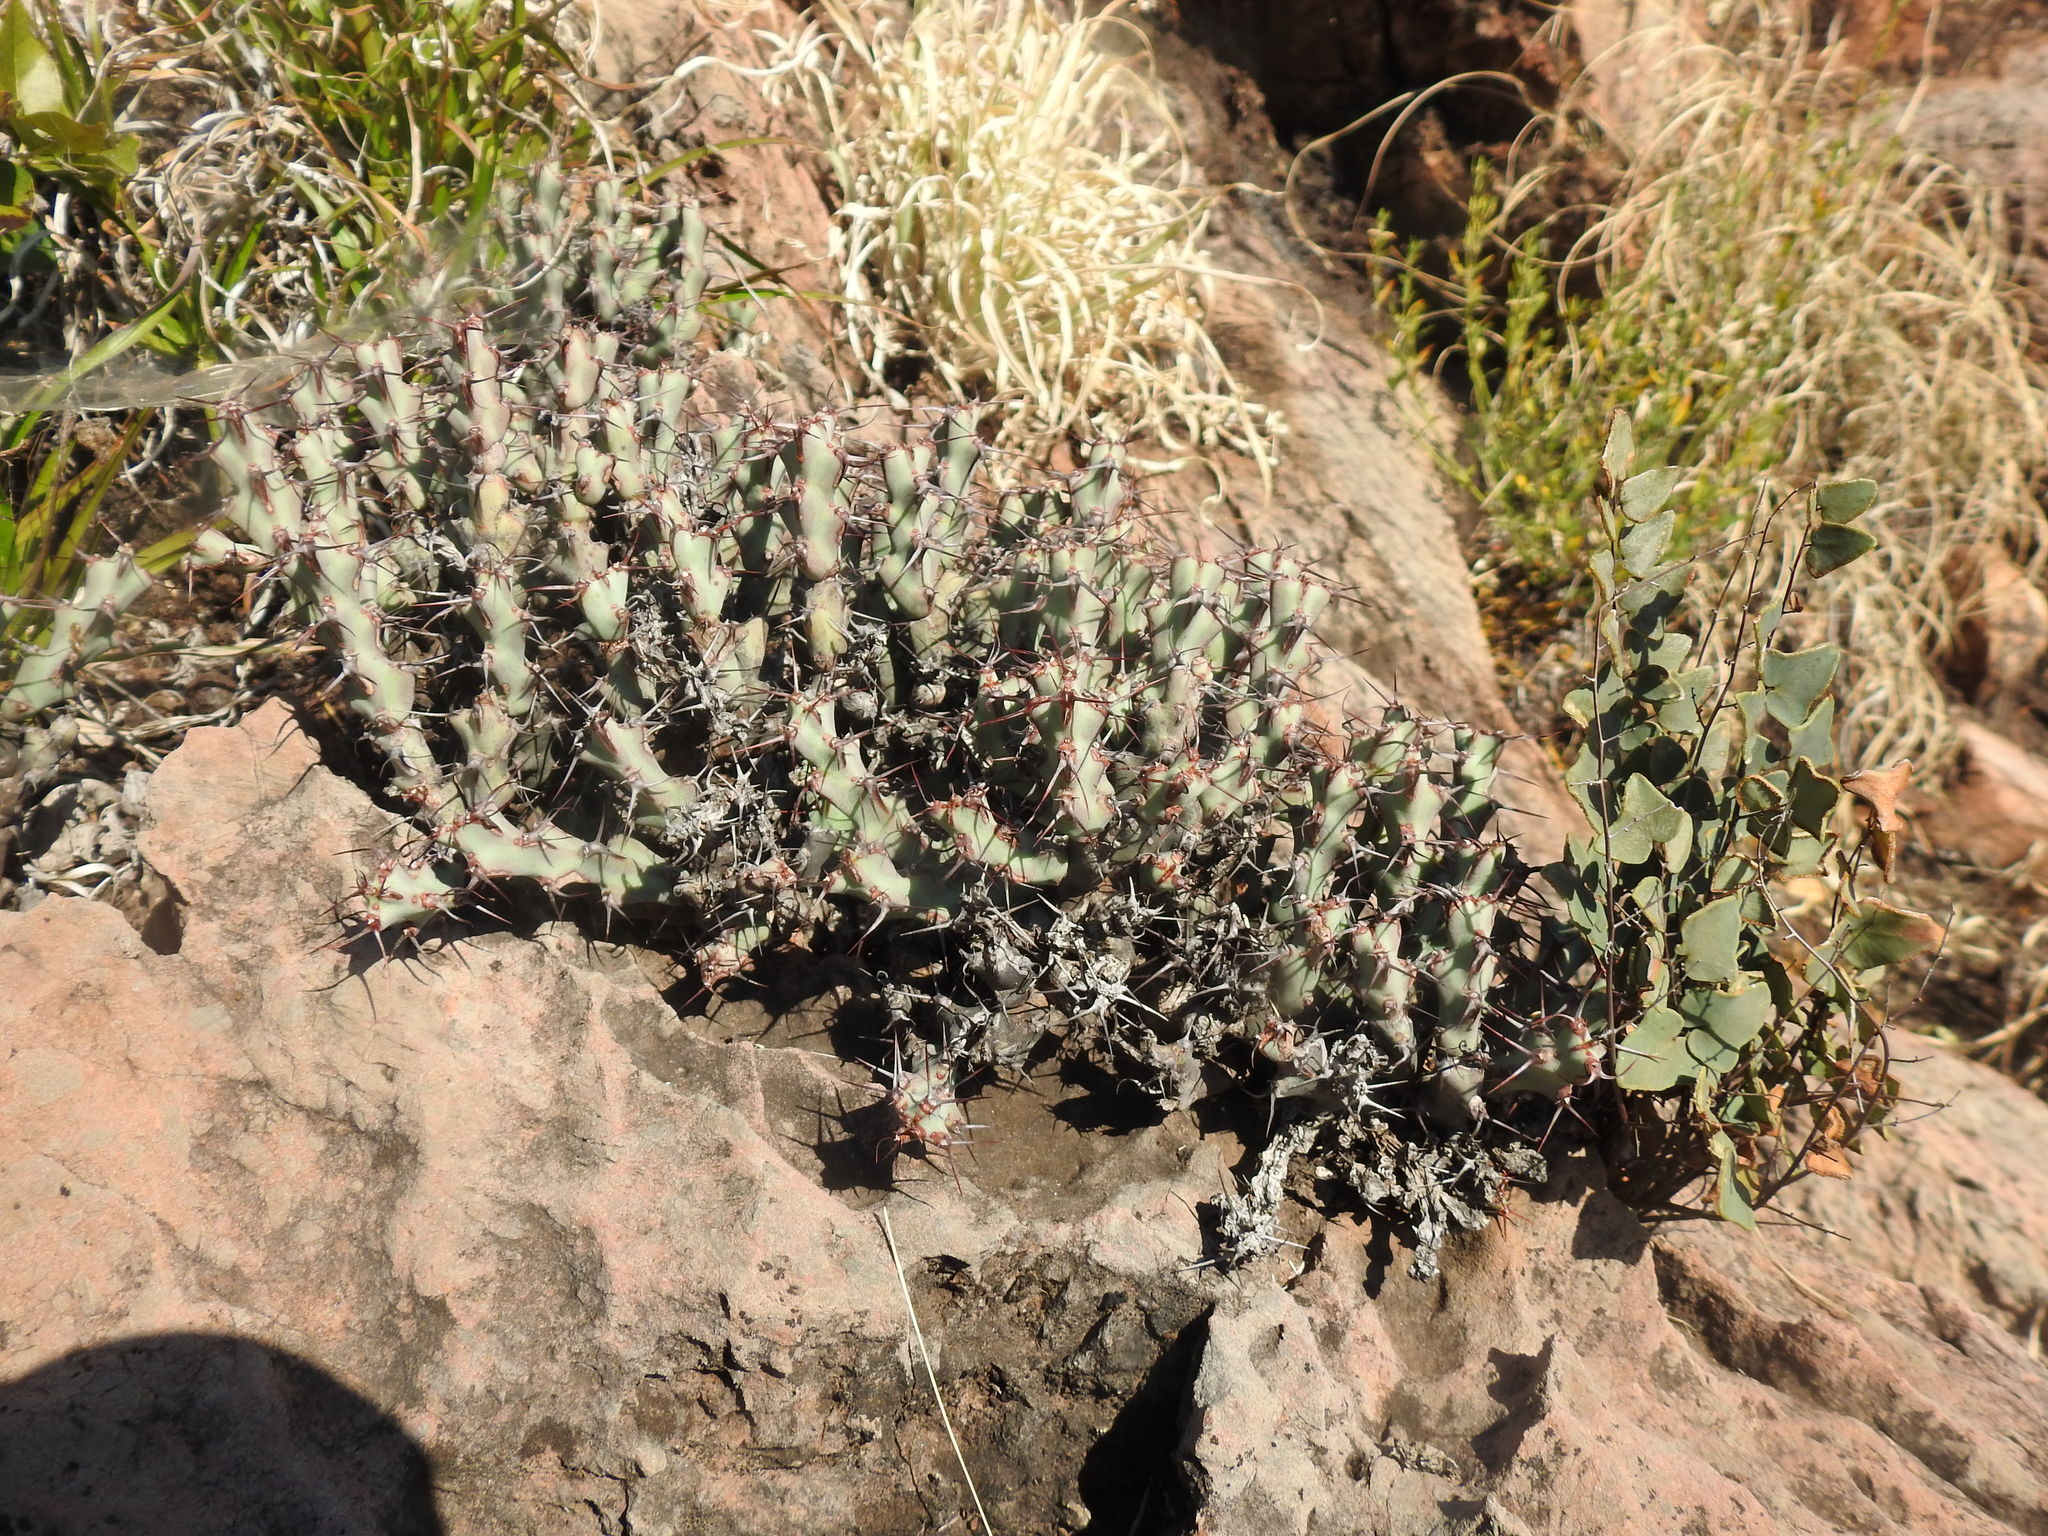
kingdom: Plantae
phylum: Tracheophyta
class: Magnoliopsida
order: Malpighiales
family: Euphorbiaceae
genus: Euphorbia
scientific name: Euphorbia schinzii
